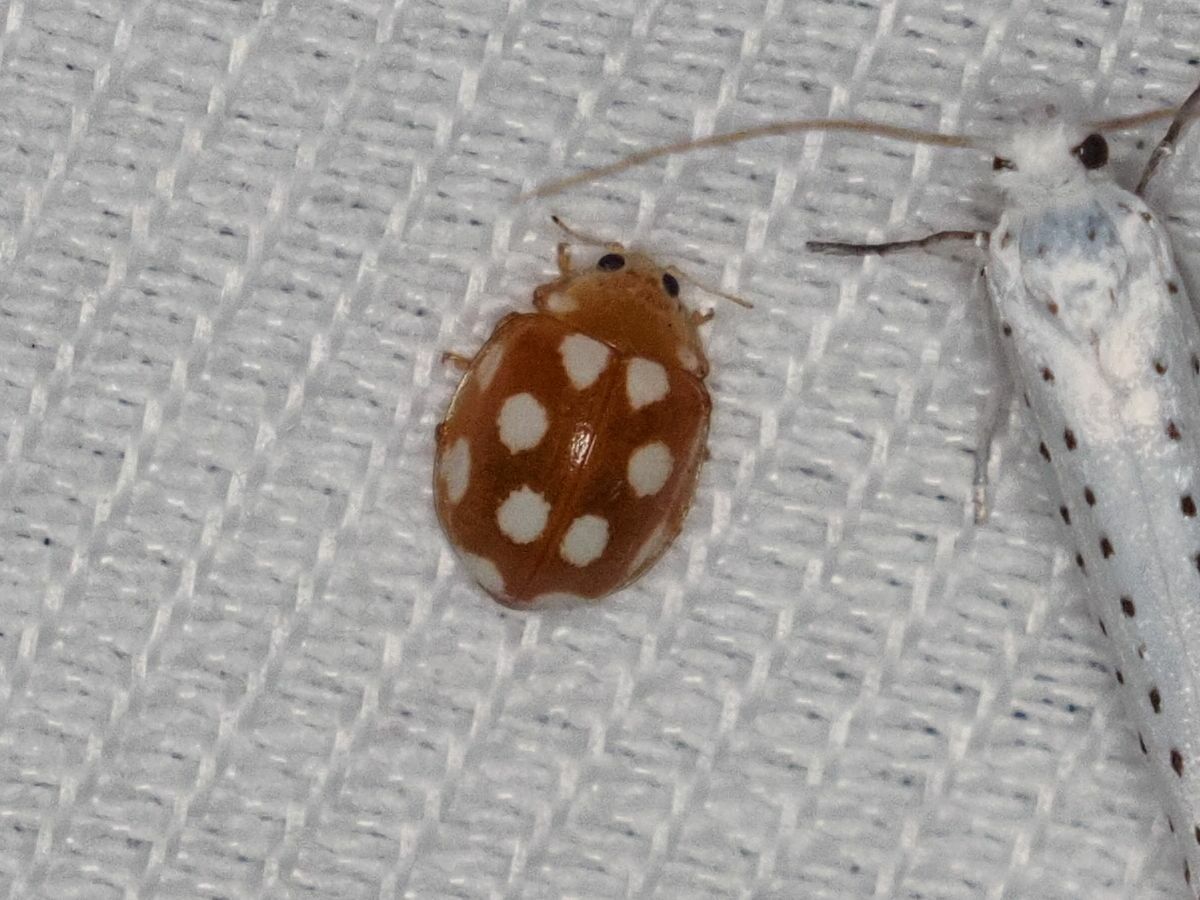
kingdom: Animalia
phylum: Arthropoda
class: Insecta
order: Coleoptera
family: Coccinellidae
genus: Vibidia
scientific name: Vibidia duodecimguttata
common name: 12-spot ladybird
